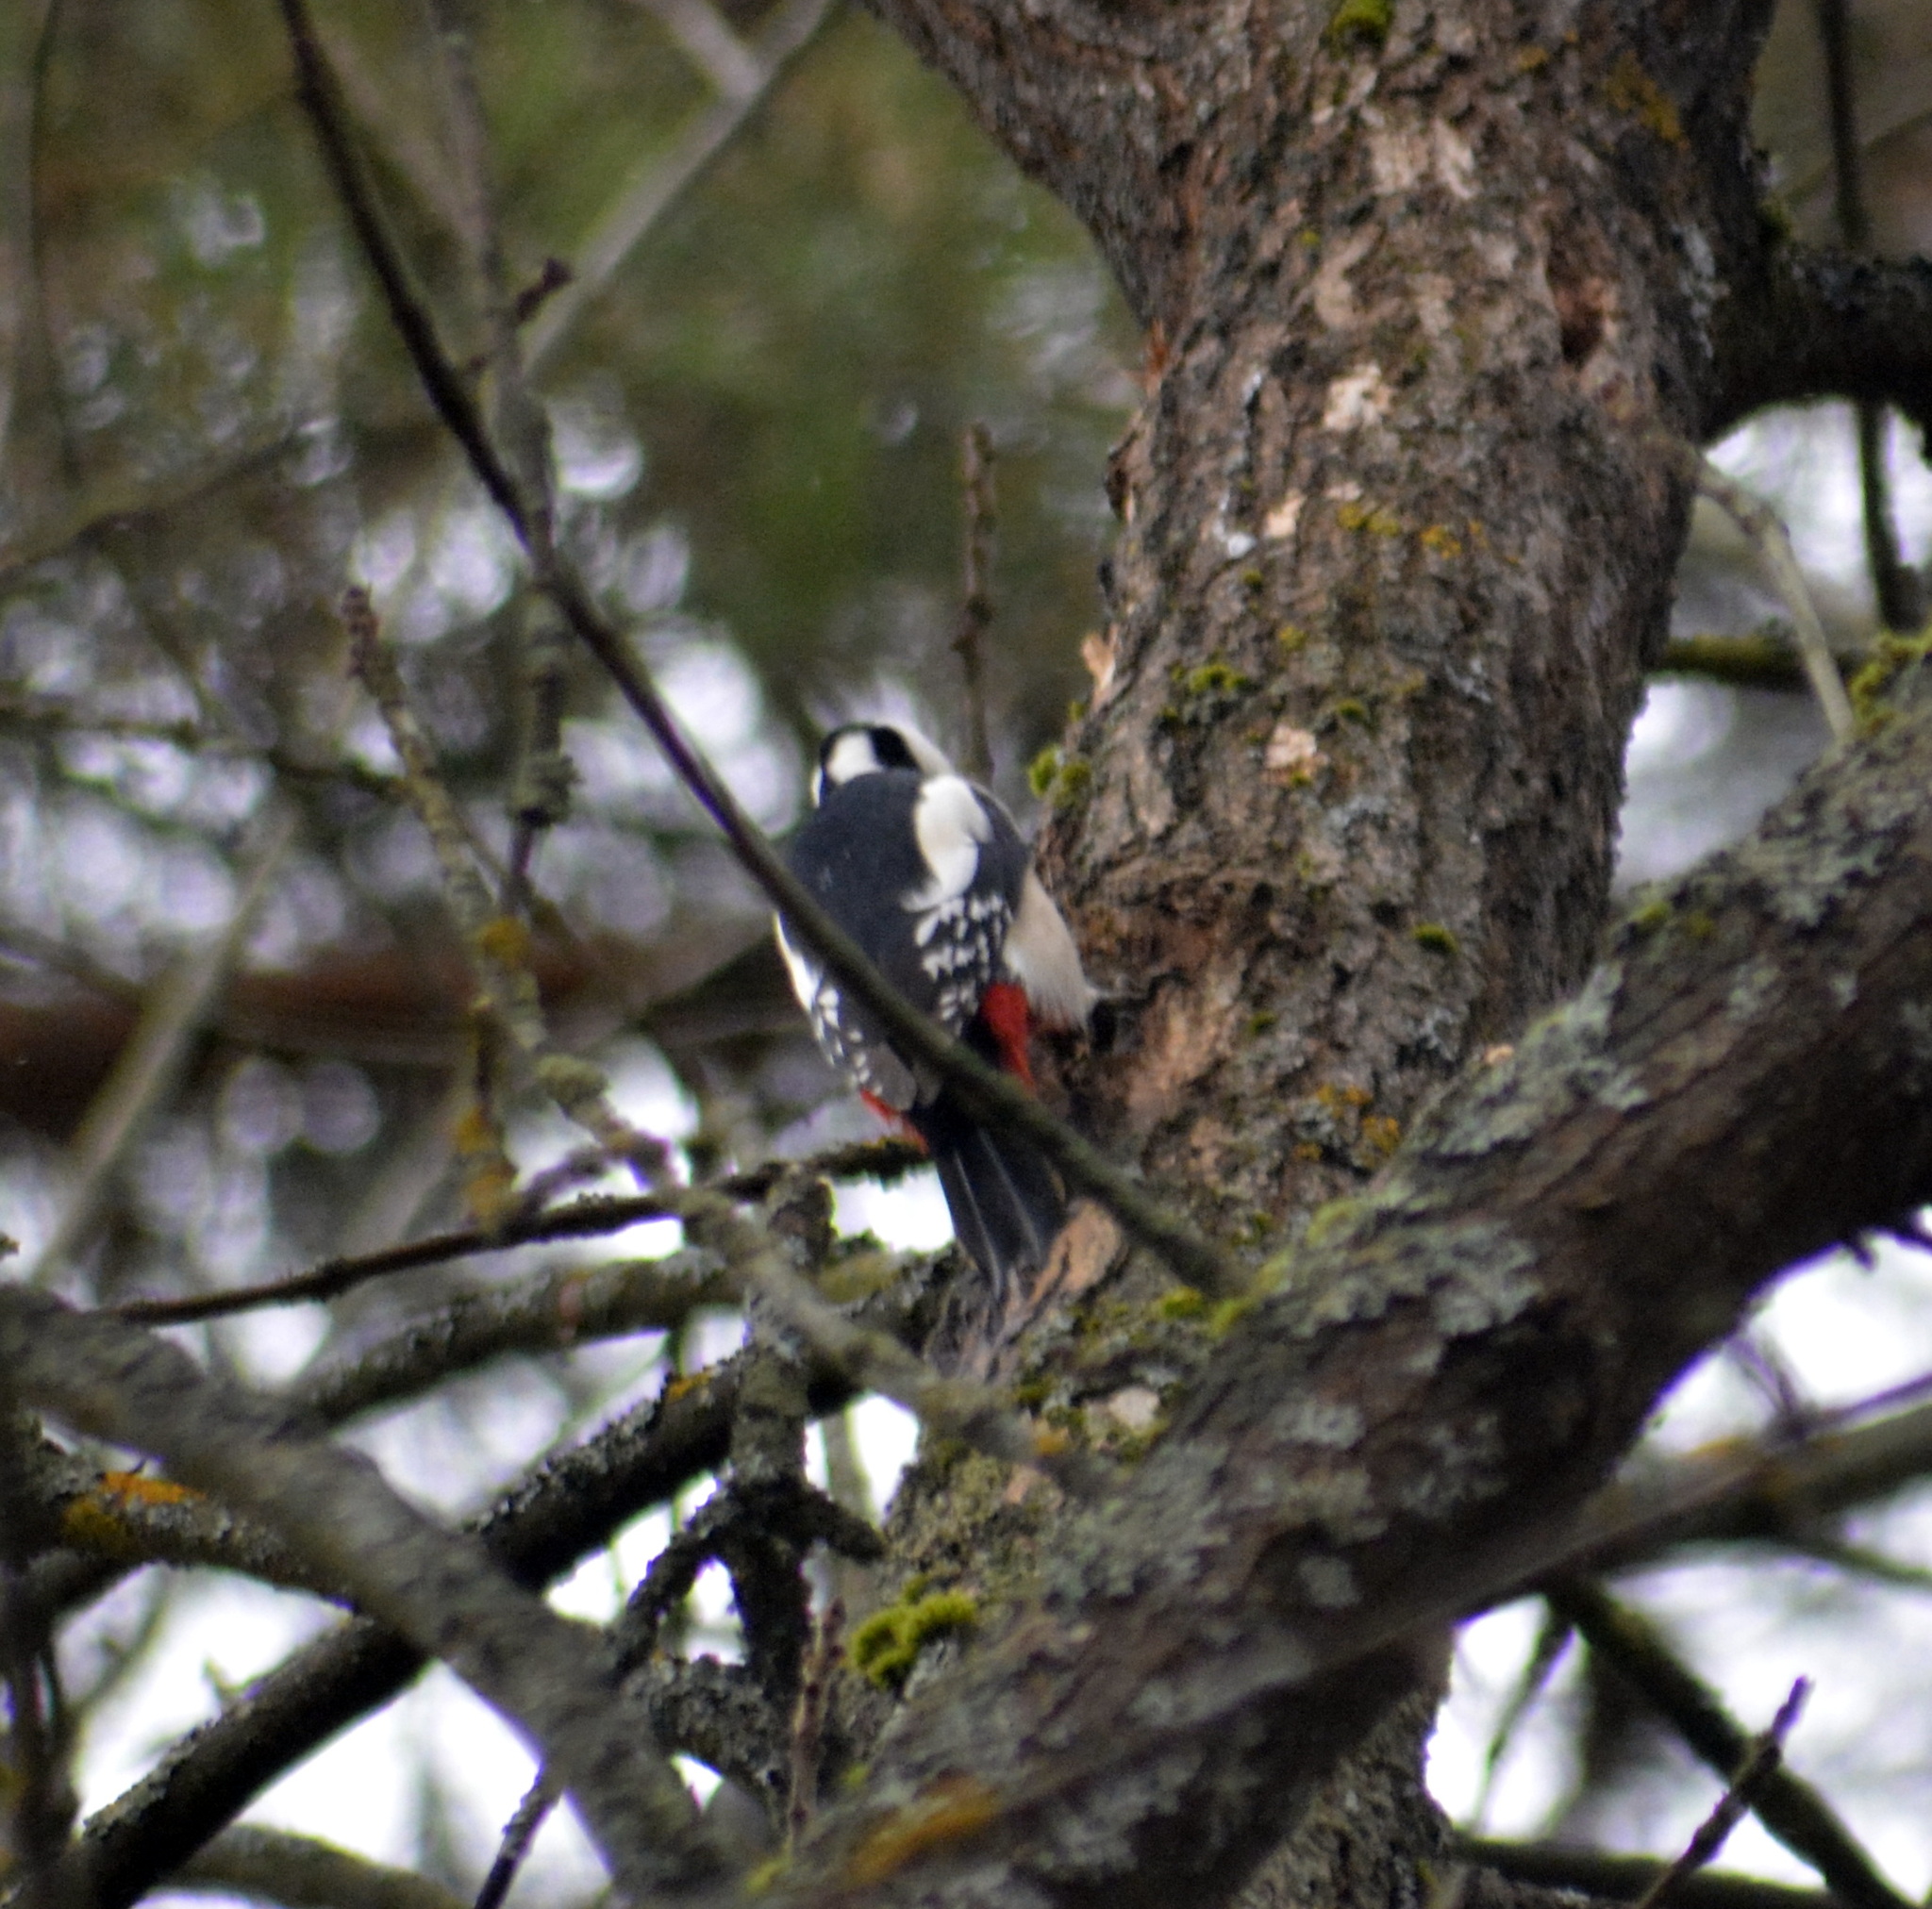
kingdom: Animalia
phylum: Chordata
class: Aves
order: Piciformes
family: Picidae
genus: Dendrocopos
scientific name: Dendrocopos major
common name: Great spotted woodpecker
